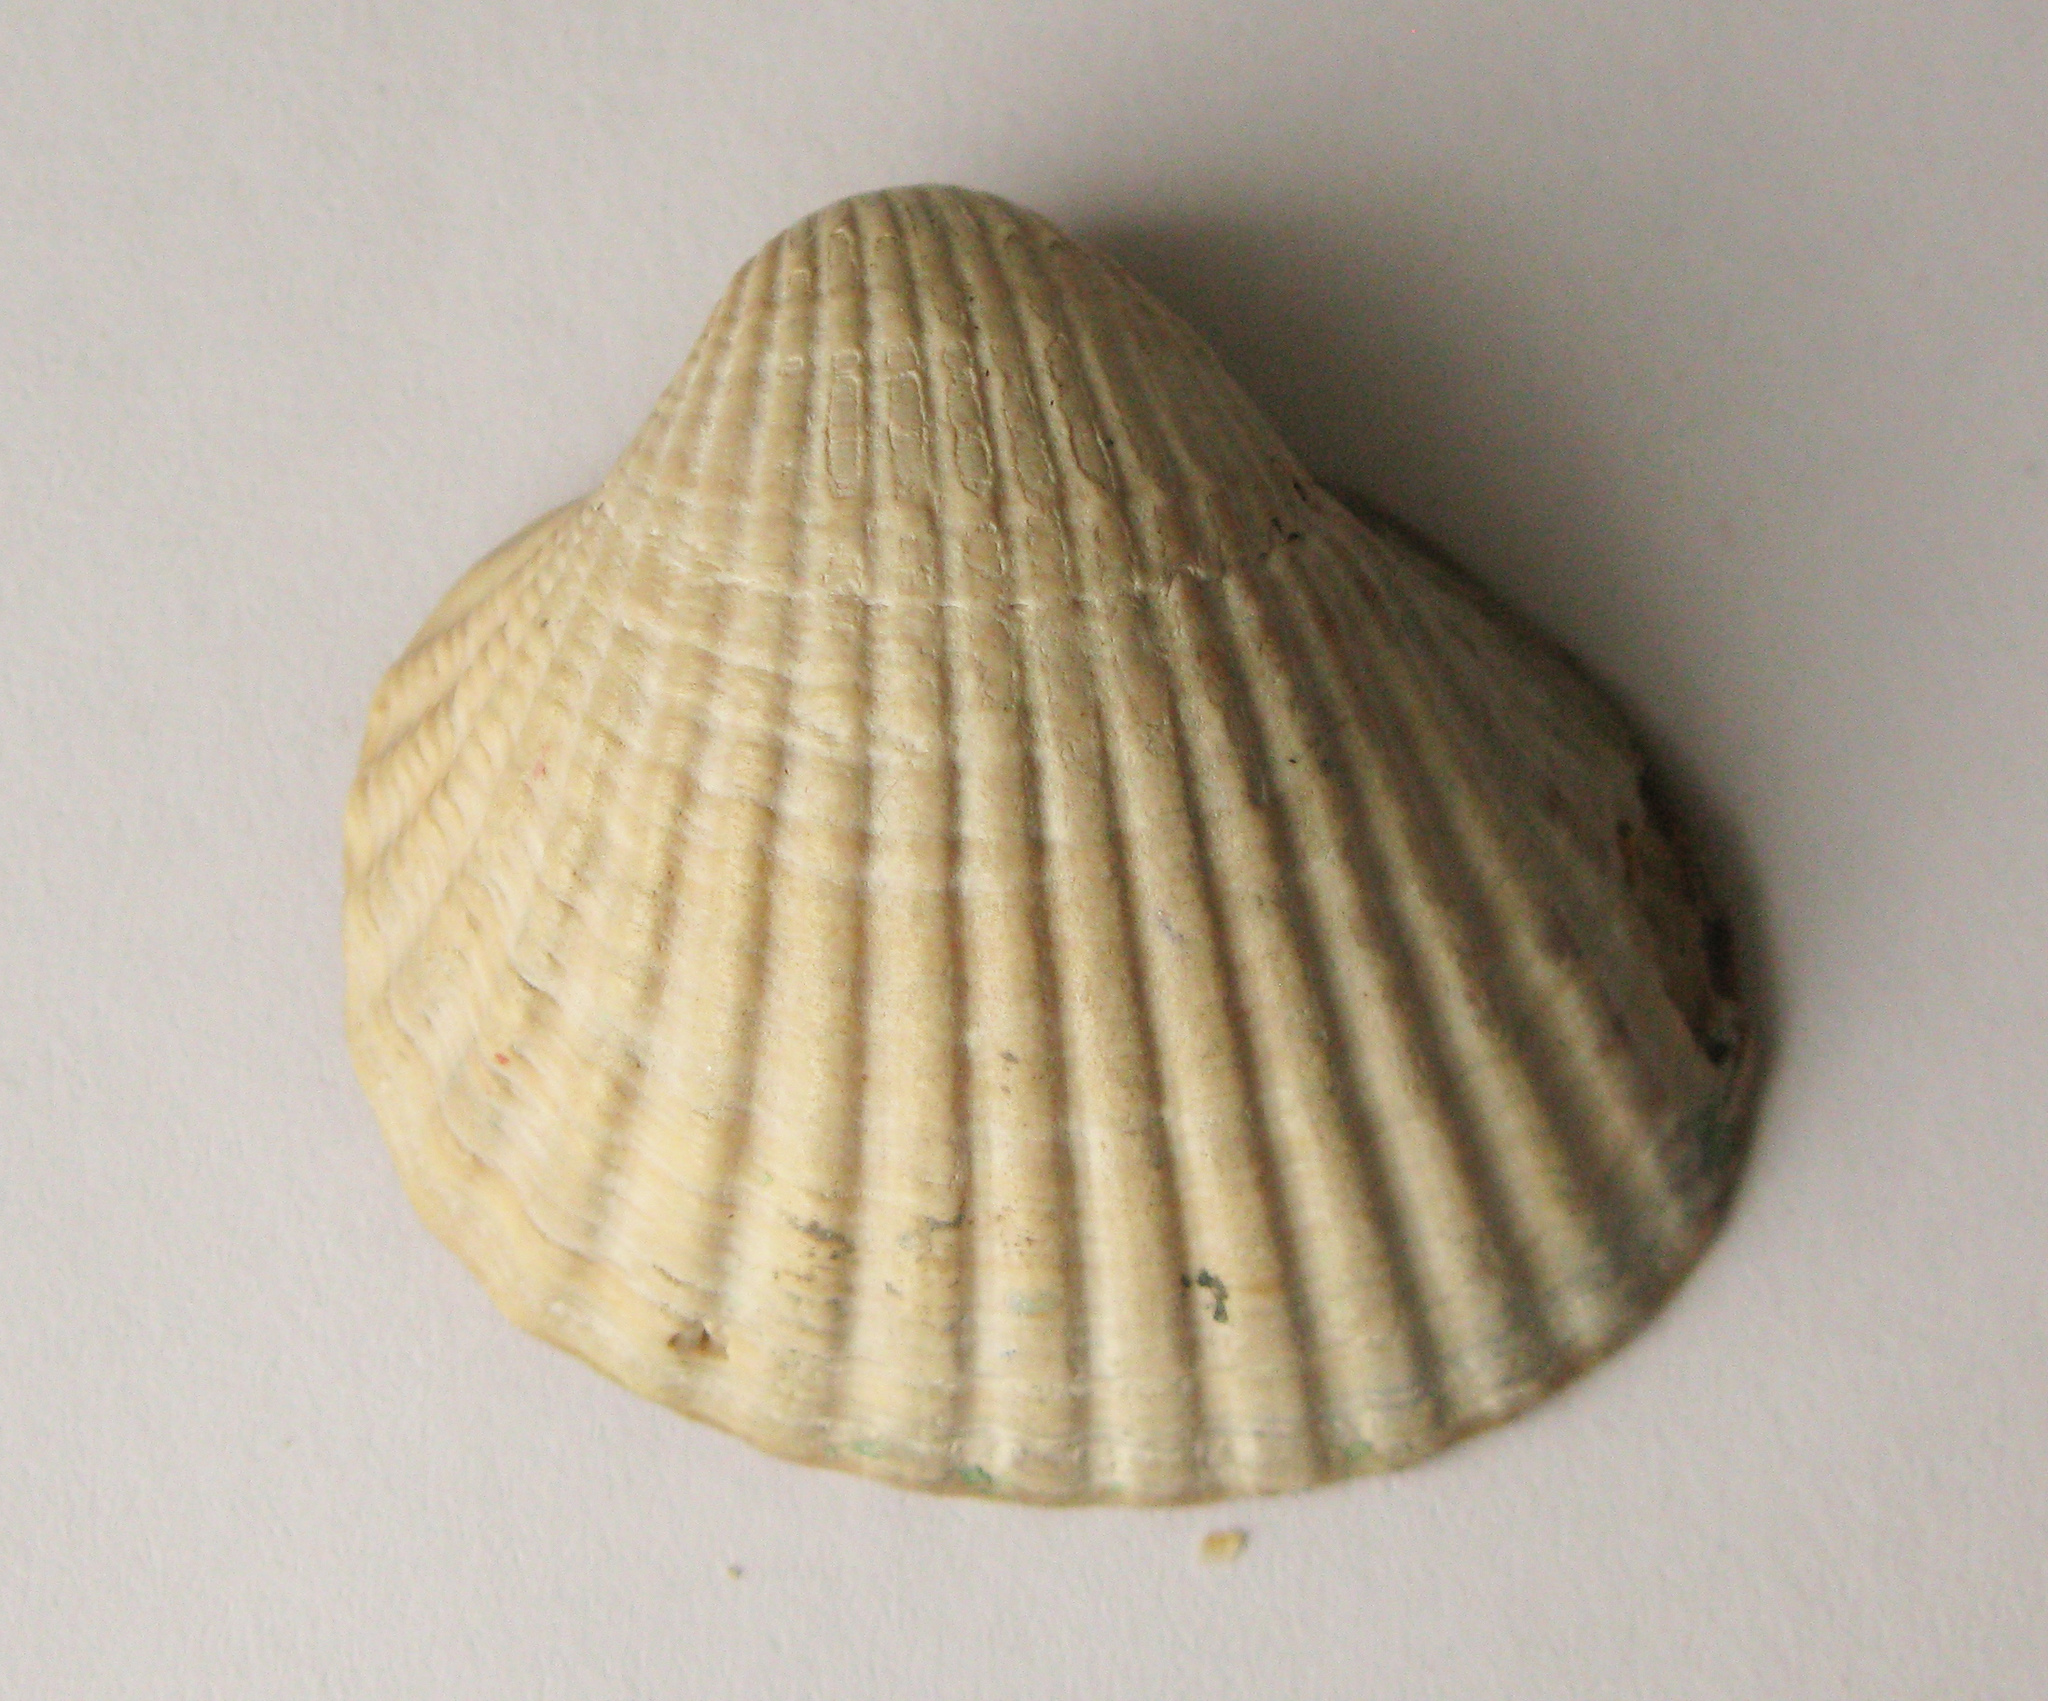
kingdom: Animalia
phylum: Mollusca
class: Bivalvia
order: Cardiida
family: Cardiidae
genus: Cerastoderma
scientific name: Cerastoderma glaucum
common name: Lagoon cockle
